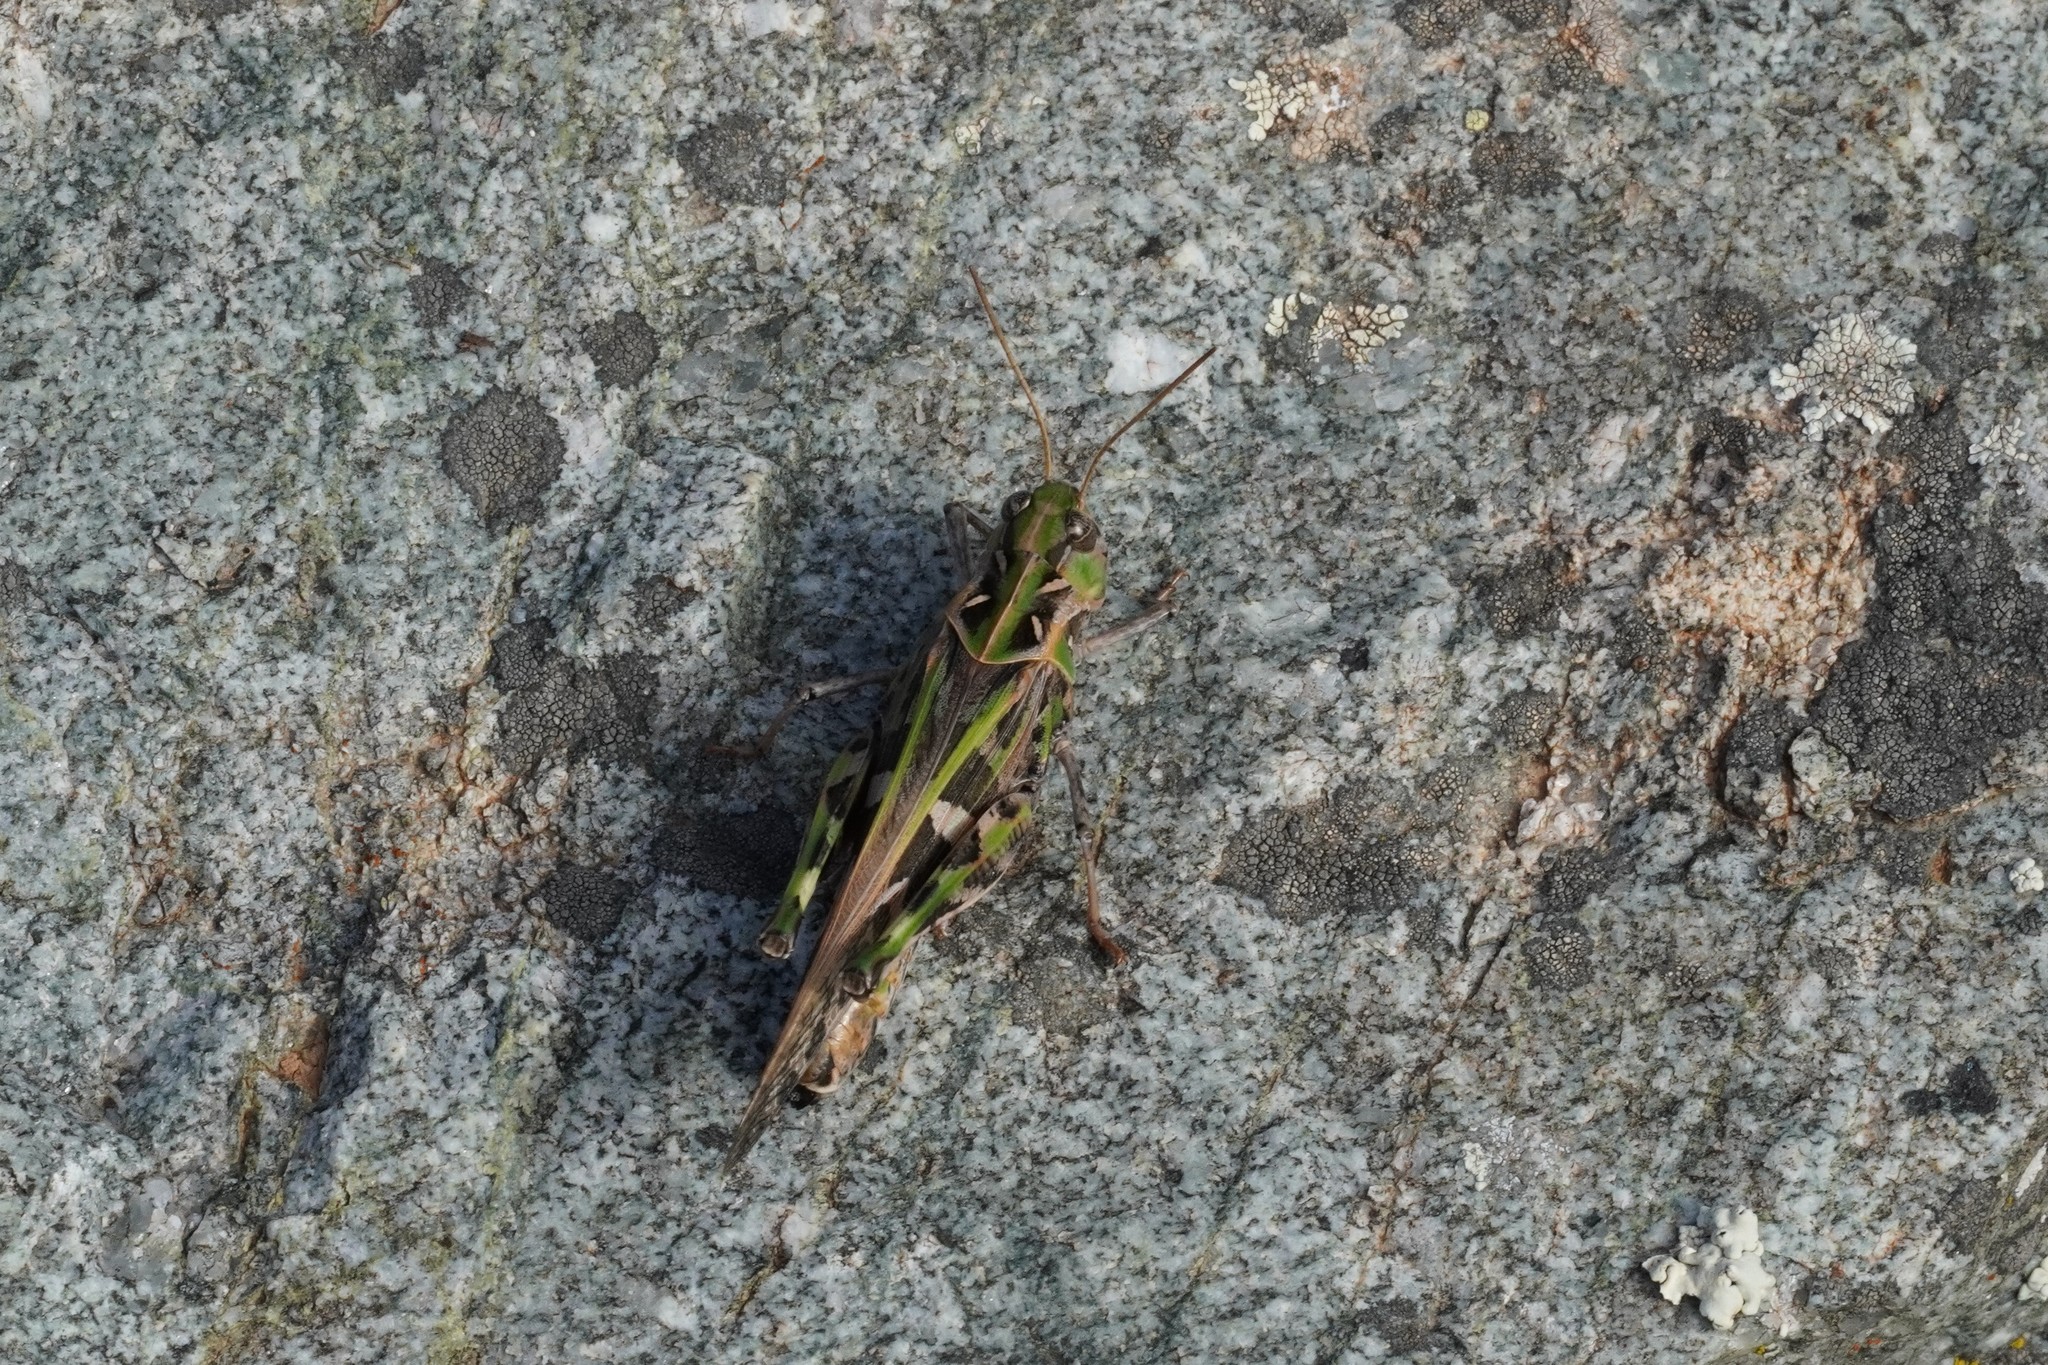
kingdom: Animalia
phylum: Arthropoda
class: Insecta
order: Orthoptera
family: Acrididae
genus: Oedaleus
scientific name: Oedaleus decorus
